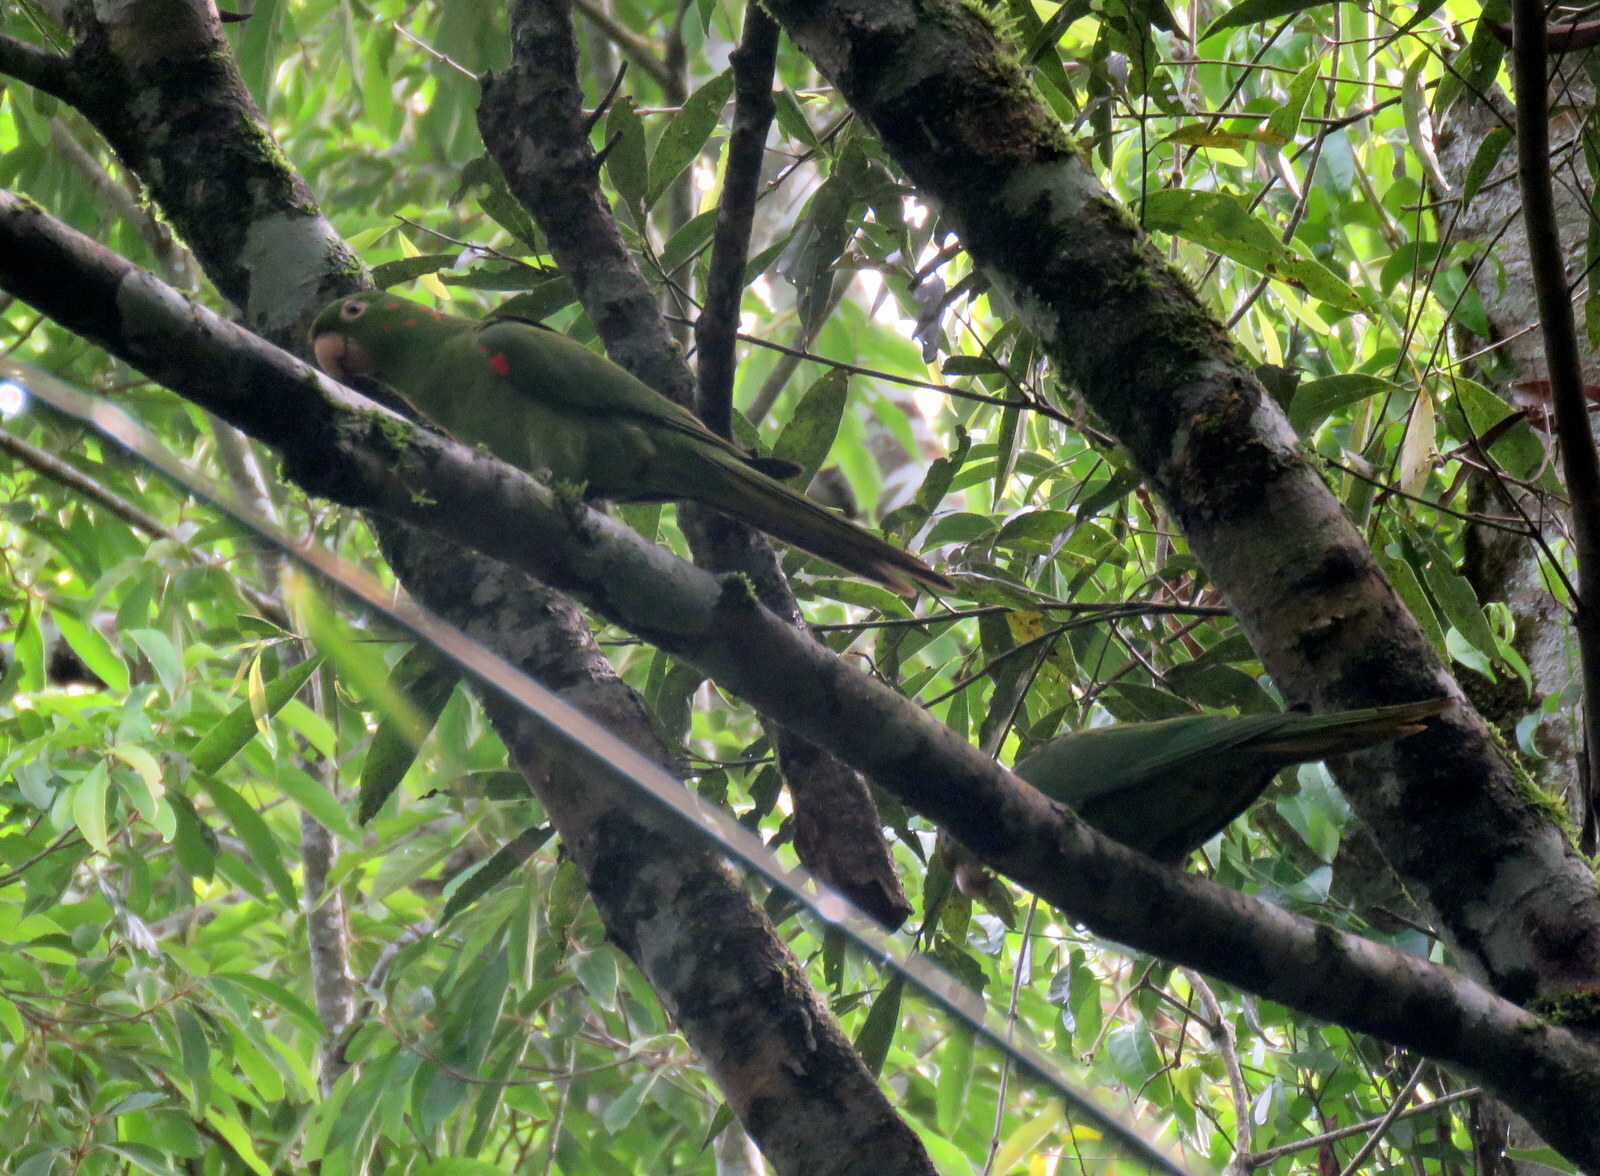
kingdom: Animalia
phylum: Chordata
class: Aves
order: Psittaciformes
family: Psittacidae
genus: Aratinga
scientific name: Aratinga leucophthalma
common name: White-eyed parakeet
